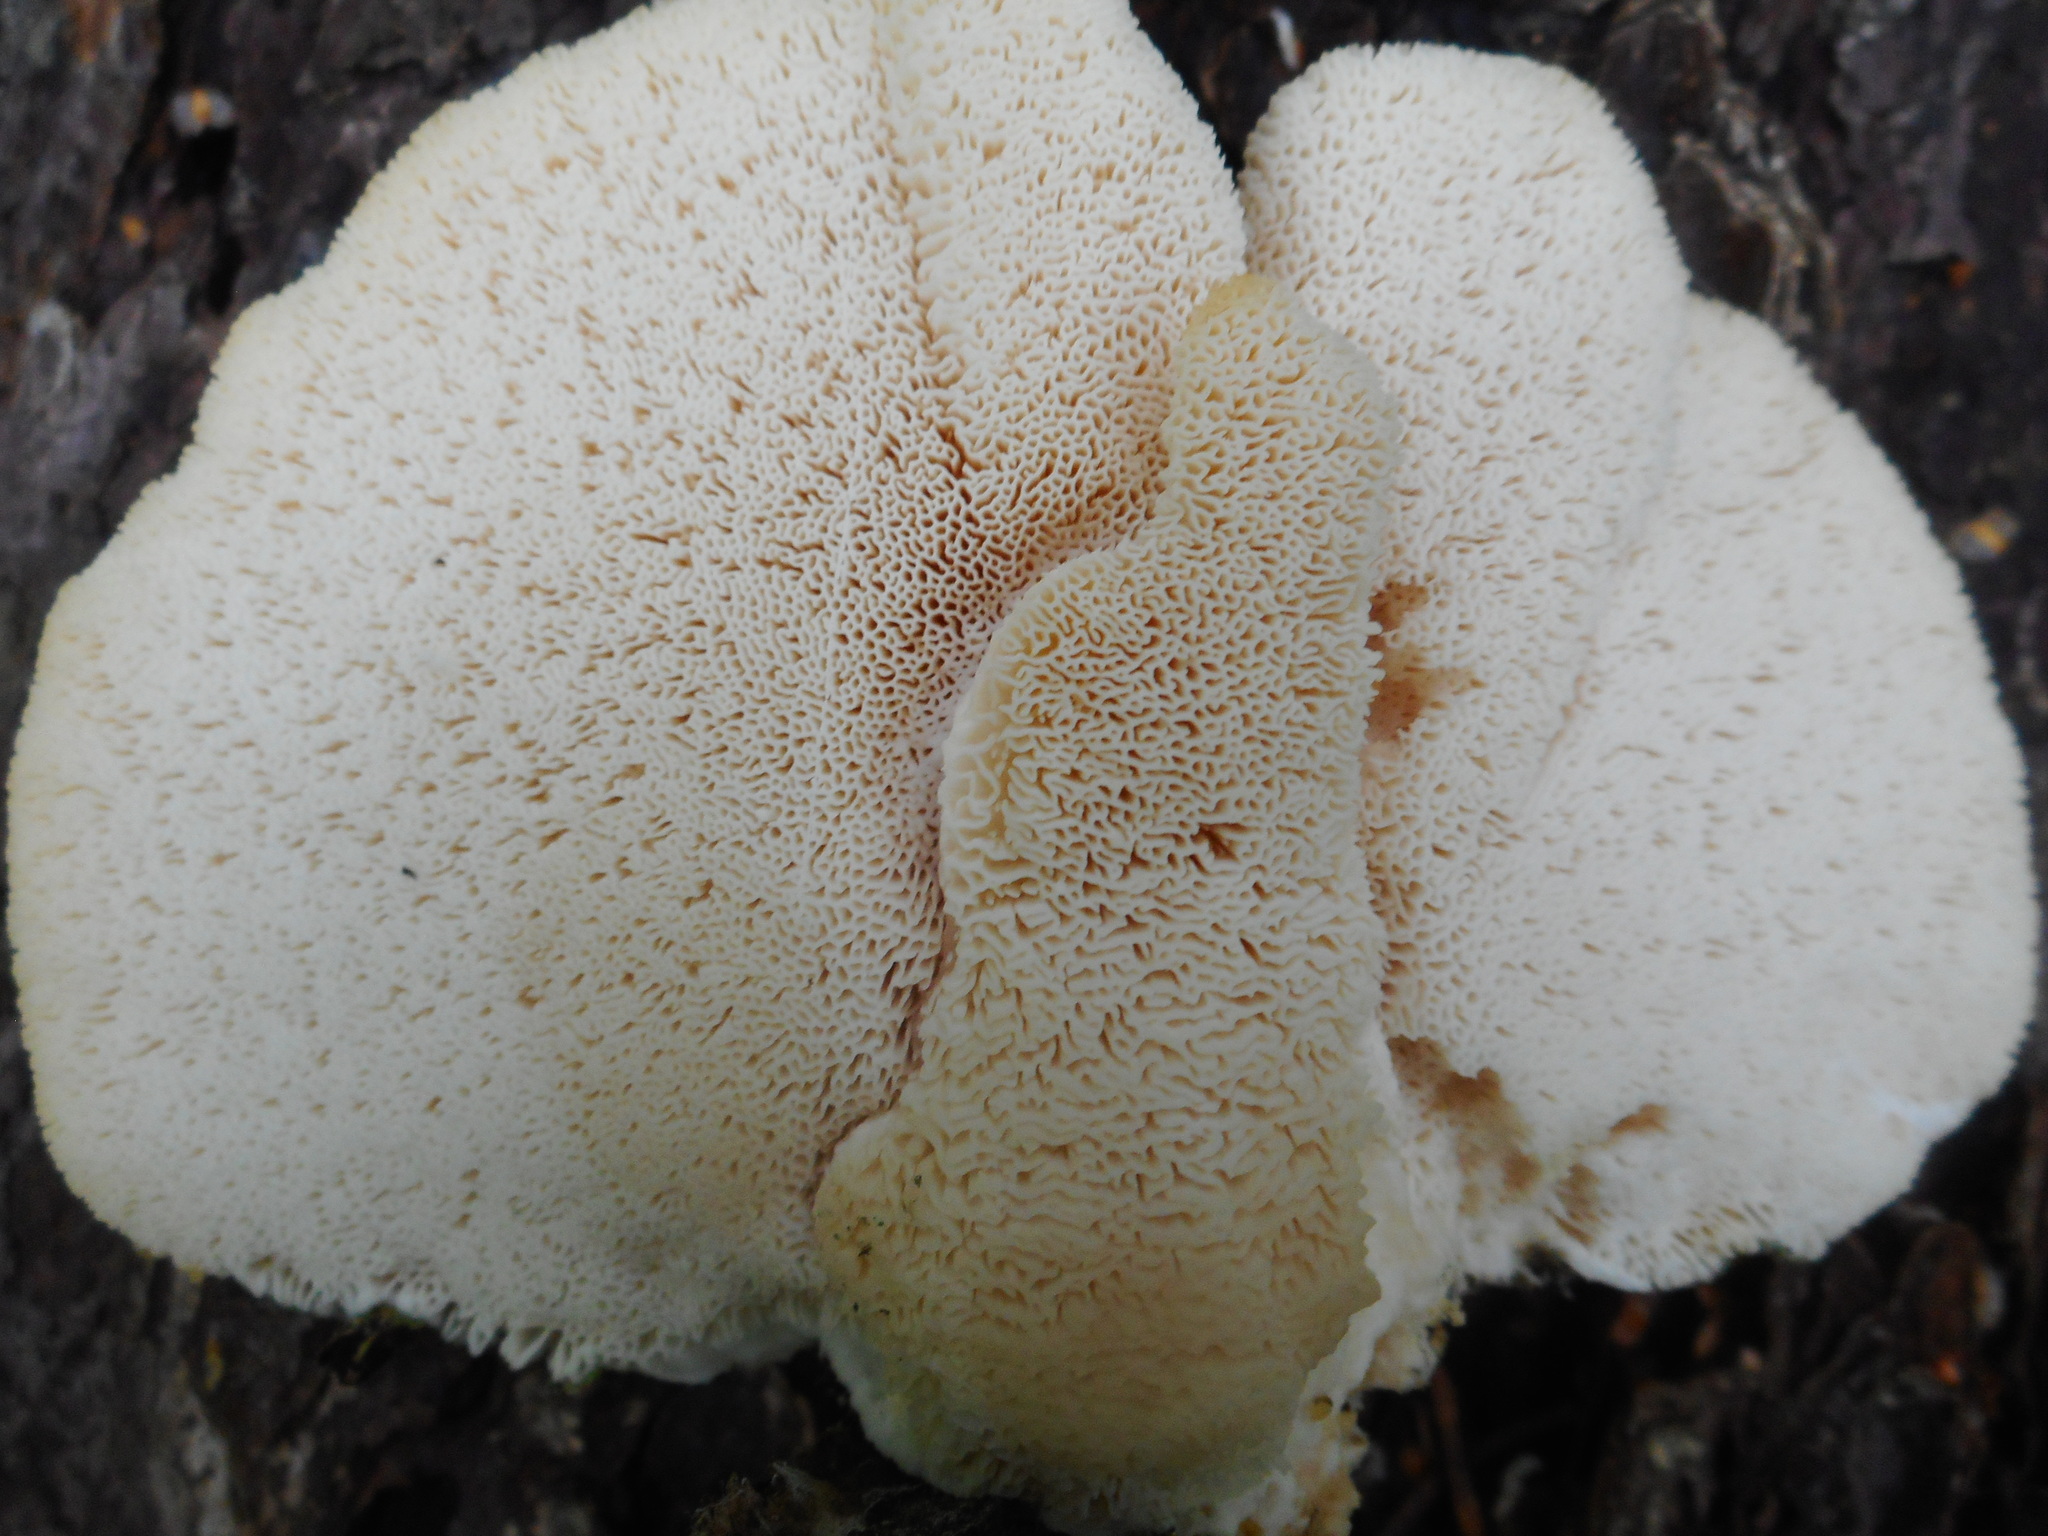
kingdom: Fungi
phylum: Basidiomycota
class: Agaricomycetes
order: Polyporales
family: Fomitopsidaceae
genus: Climacocystis
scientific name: Climacocystis borealis
